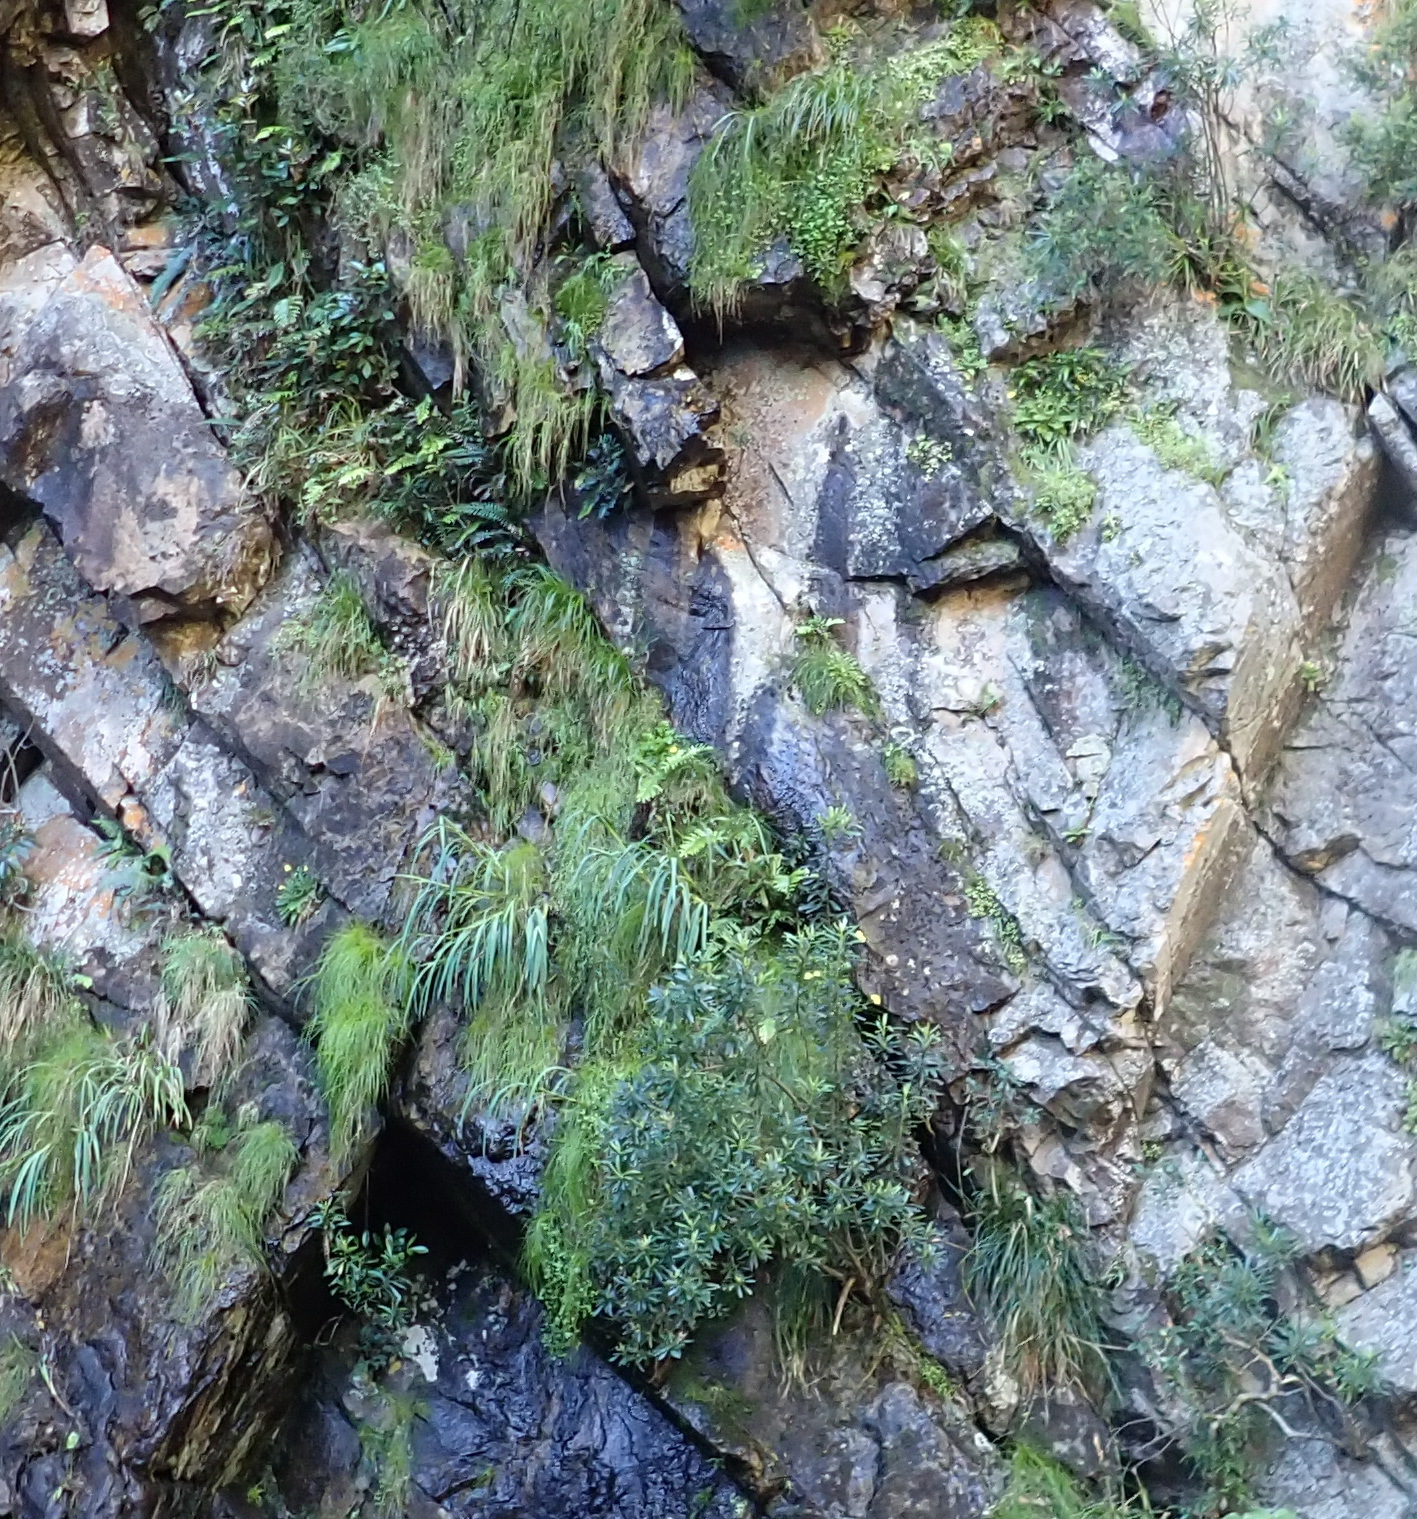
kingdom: Plantae
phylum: Tracheophyta
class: Liliopsida
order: Asparagales
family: Iridaceae
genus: Gladiolus
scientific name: Gladiolus aquamontanus
